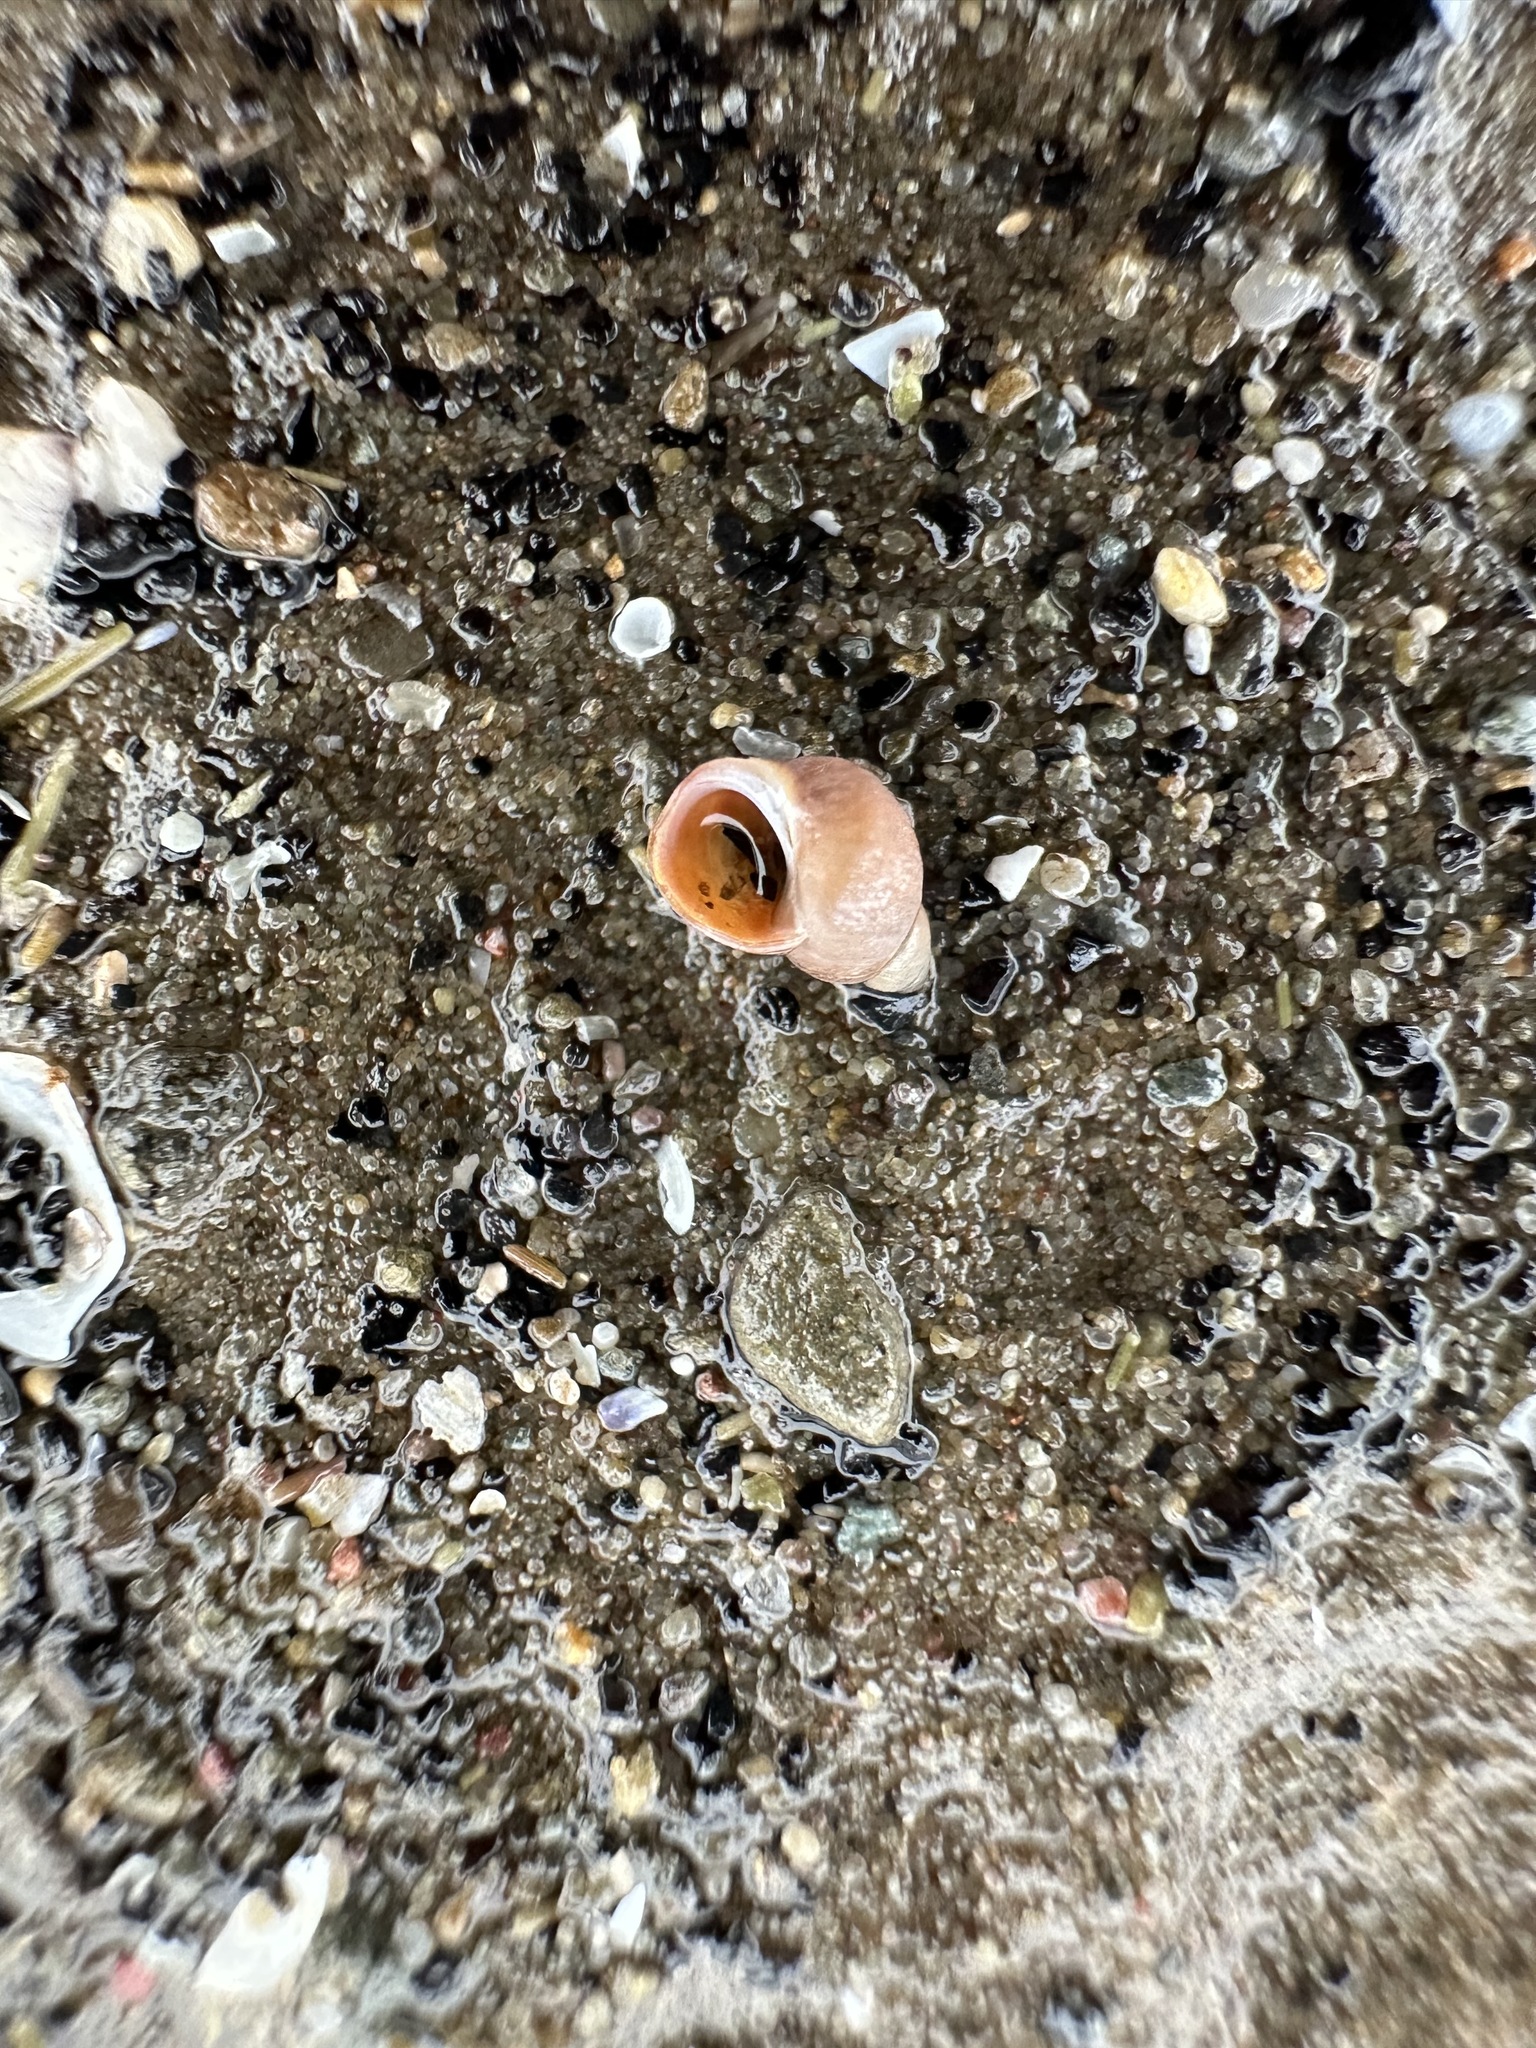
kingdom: Animalia
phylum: Mollusca
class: Gastropoda
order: Littorinimorpha
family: Littorinidae
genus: Lacuna
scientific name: Lacuna vincta
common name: Banded chink shell
